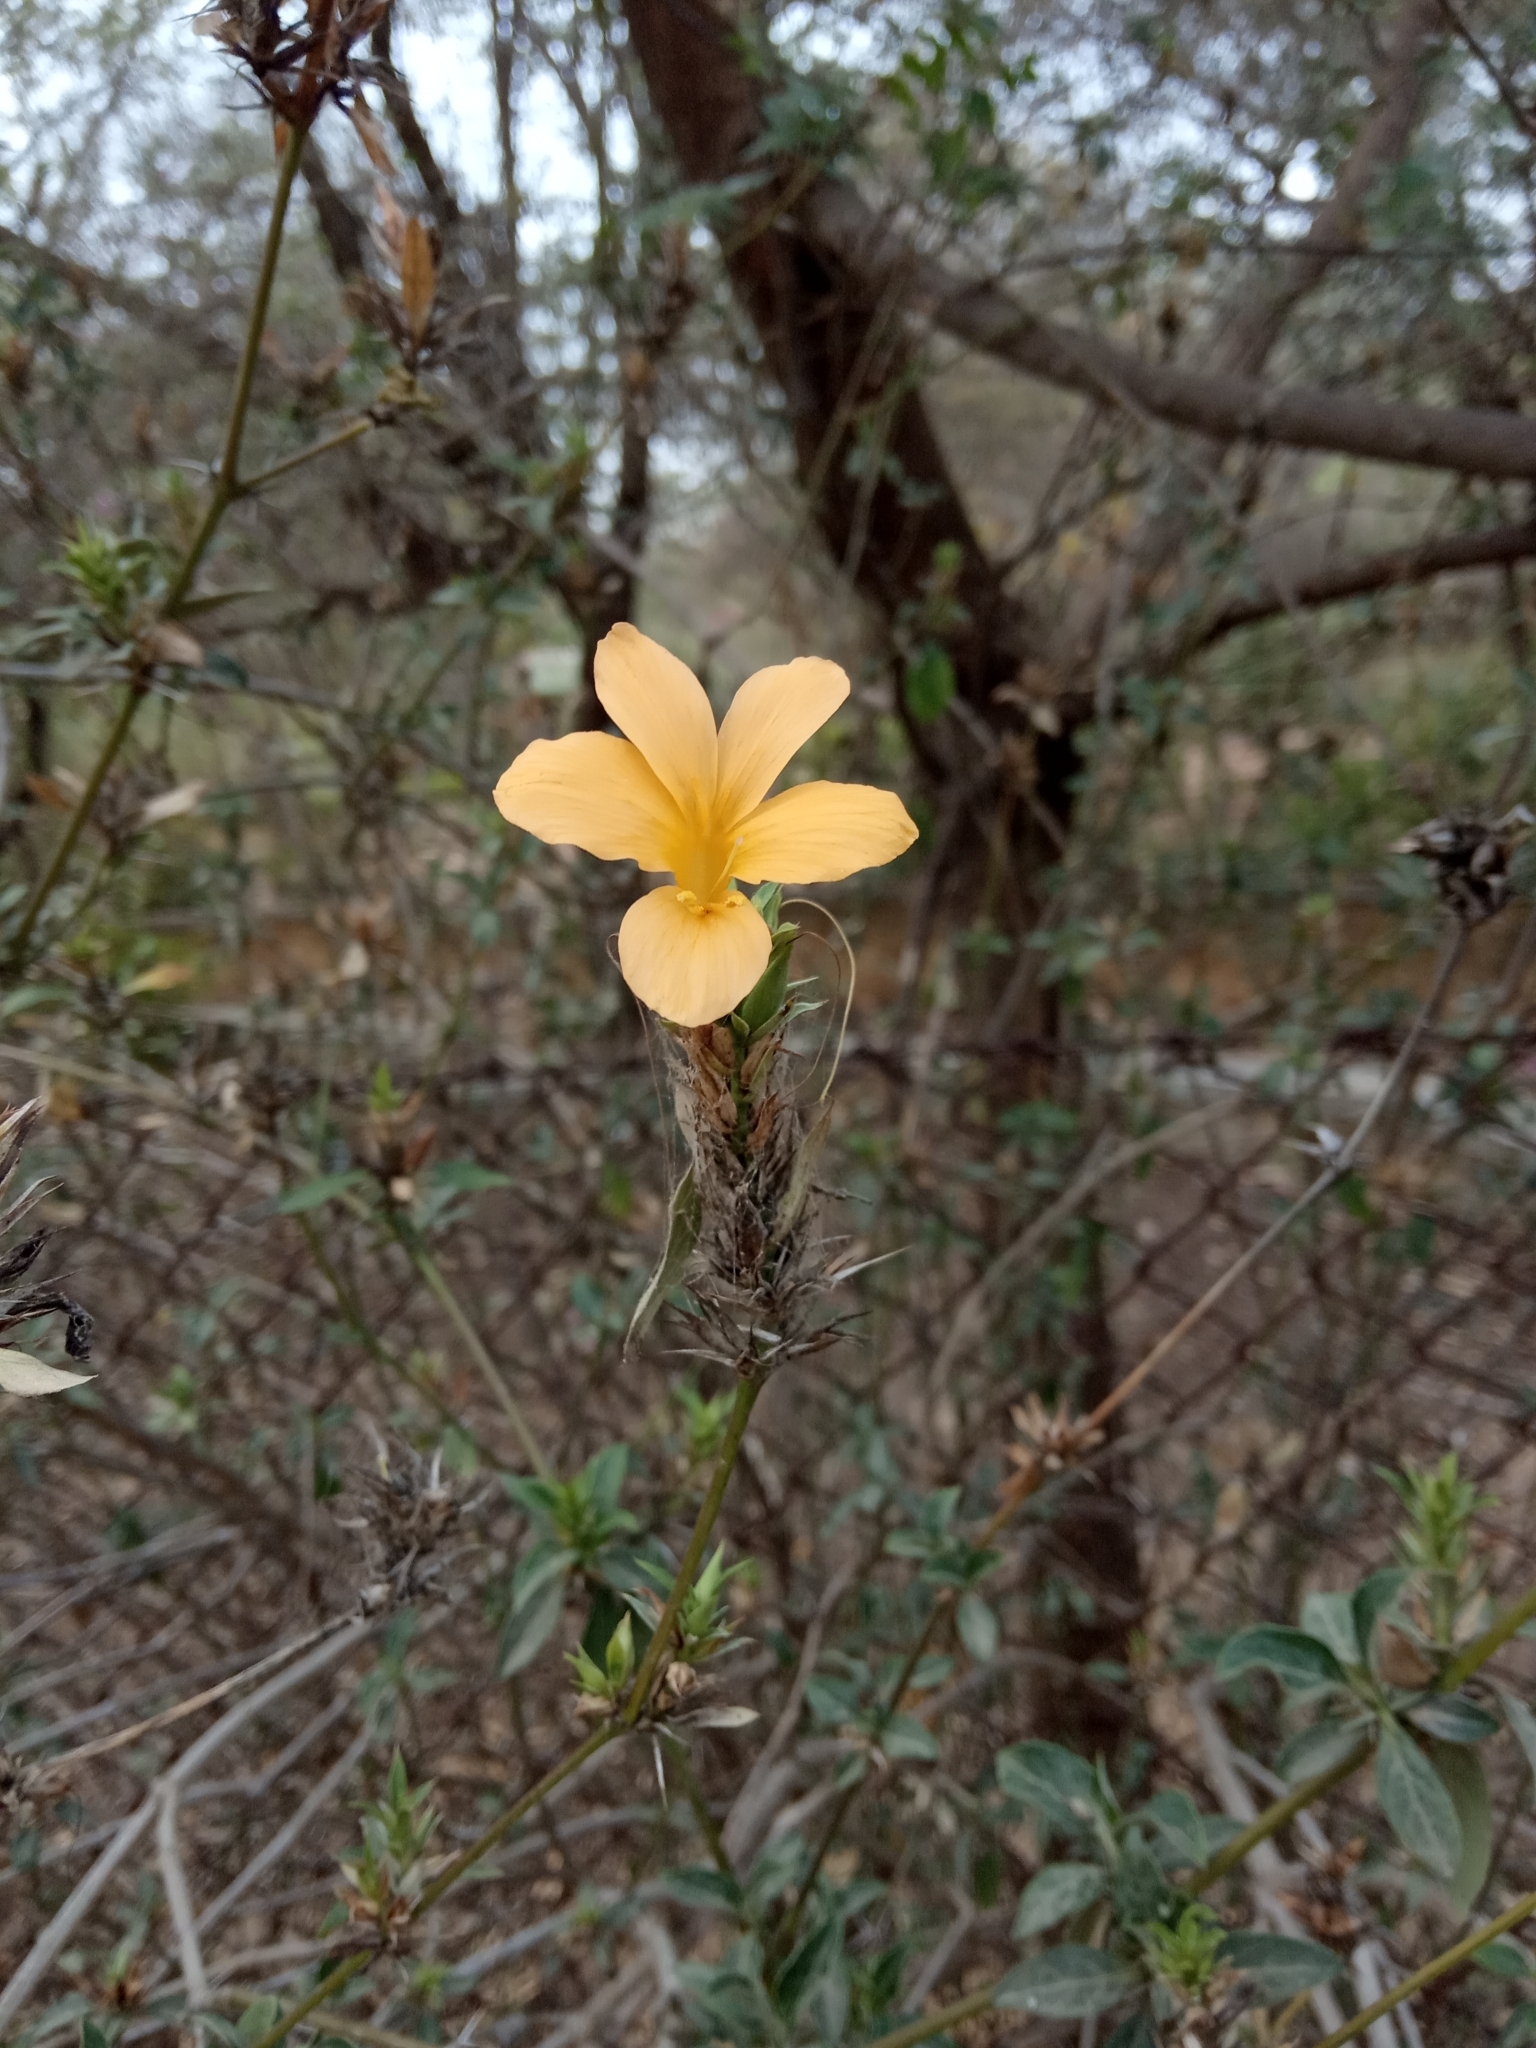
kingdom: Plantae
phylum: Tracheophyta
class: Magnoliopsida
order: Lamiales
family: Acanthaceae
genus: Barleria
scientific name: Barleria prionitis
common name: Barleria
